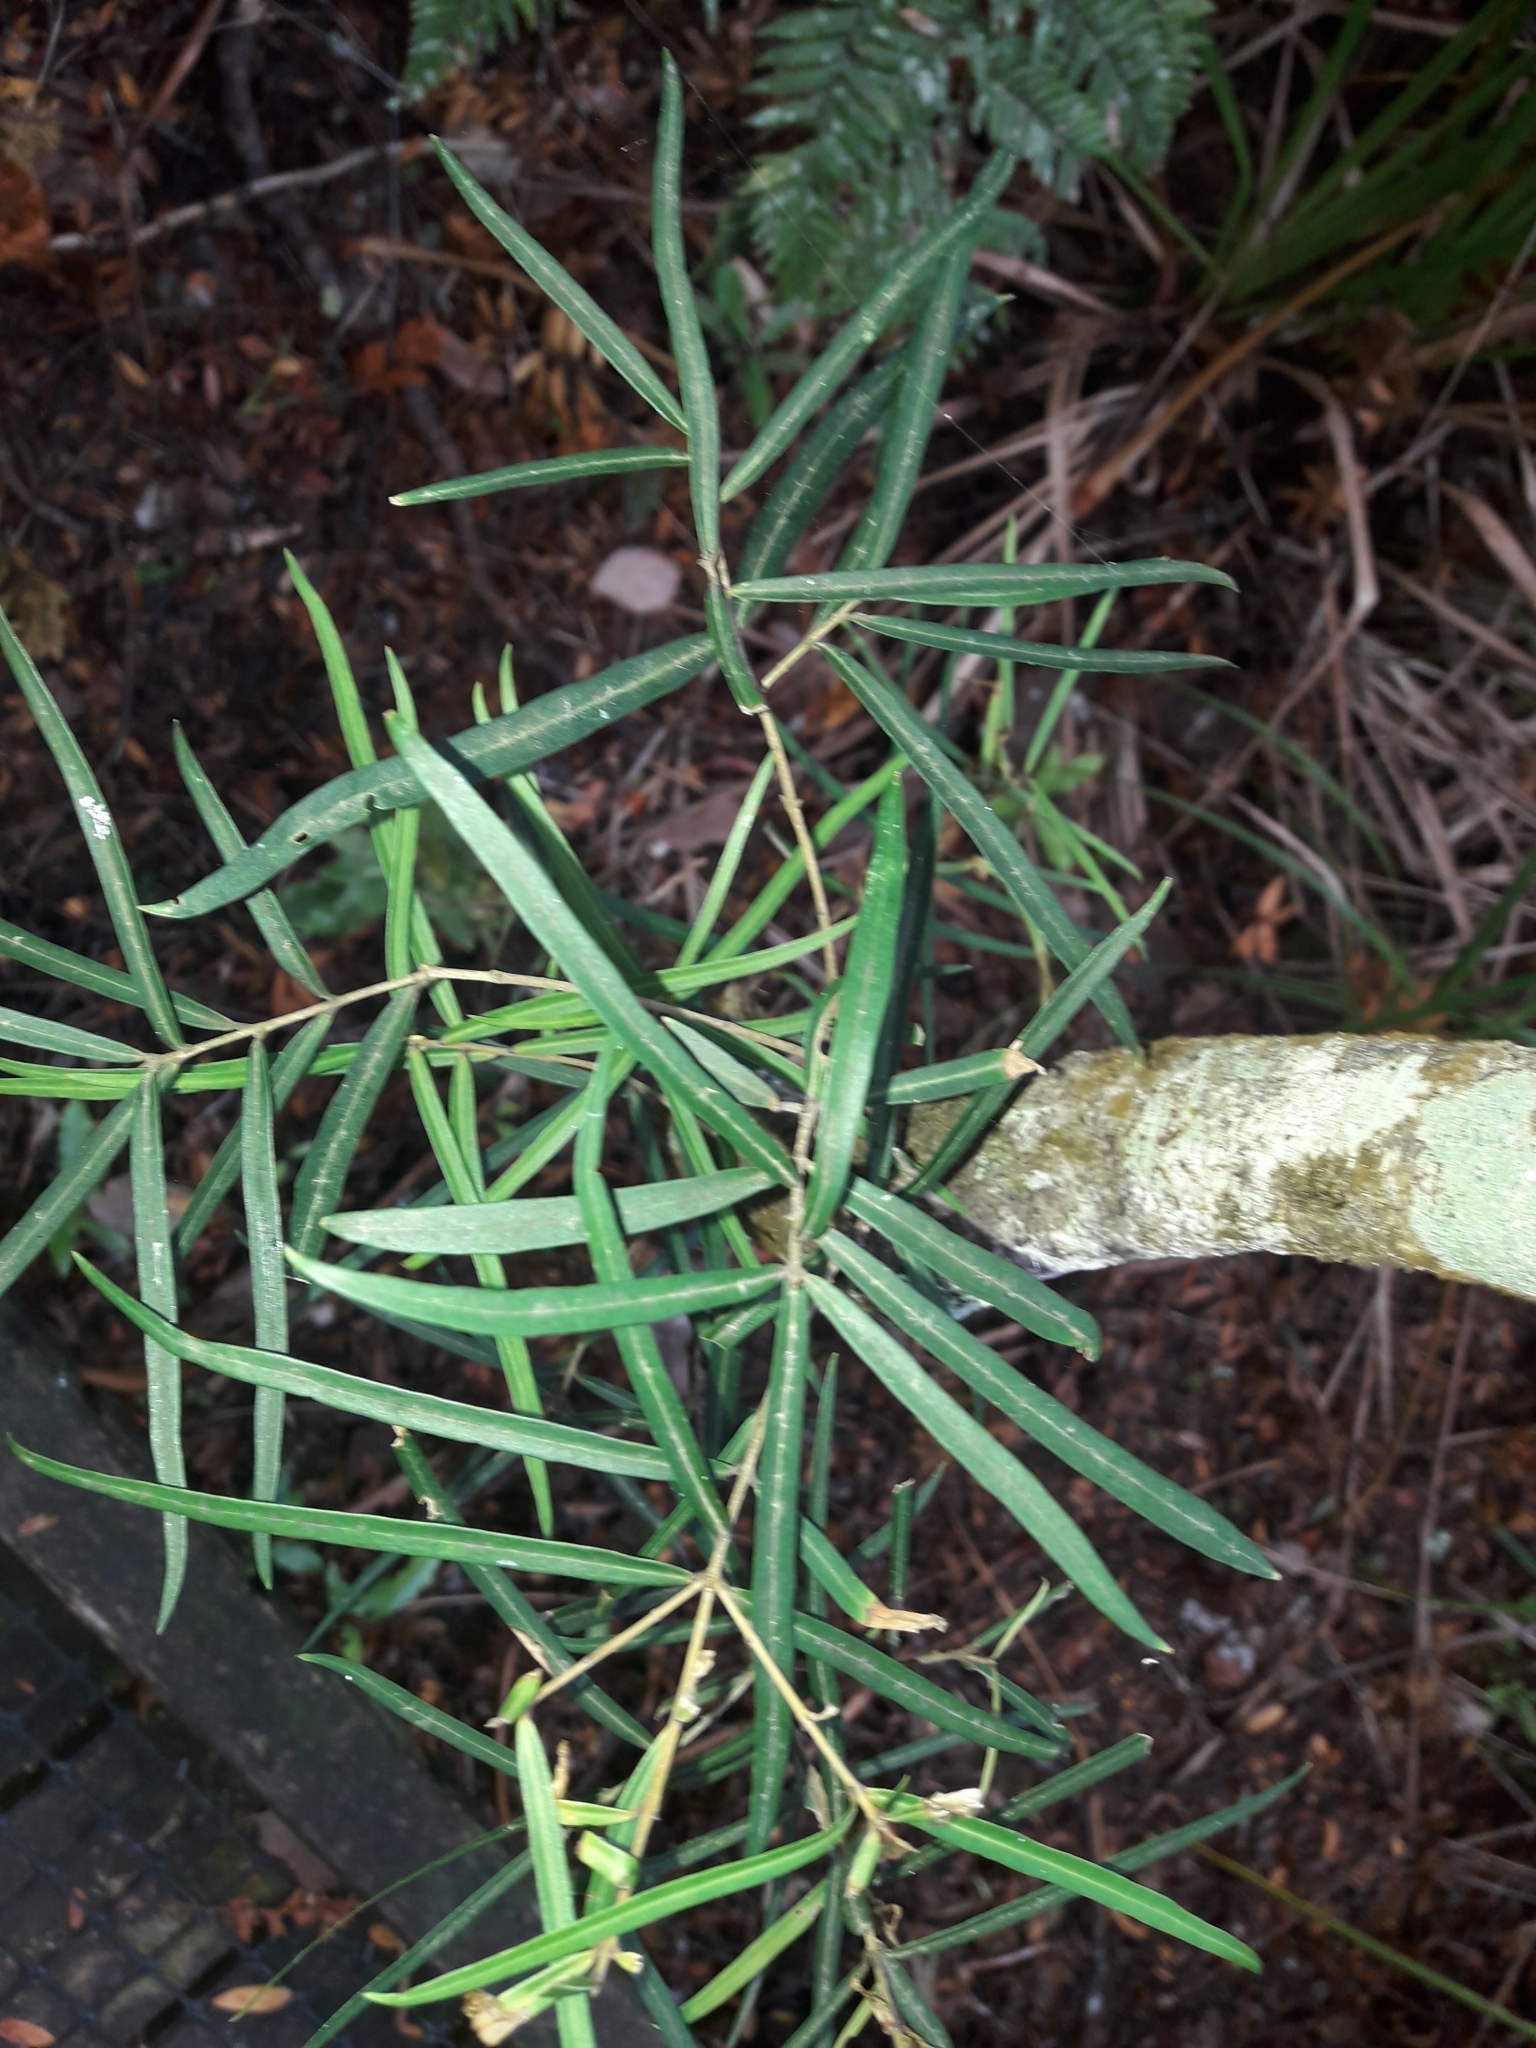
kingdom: Plantae
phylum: Tracheophyta
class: Magnoliopsida
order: Lamiales
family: Oleaceae
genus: Nestegis
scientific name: Nestegis montana
